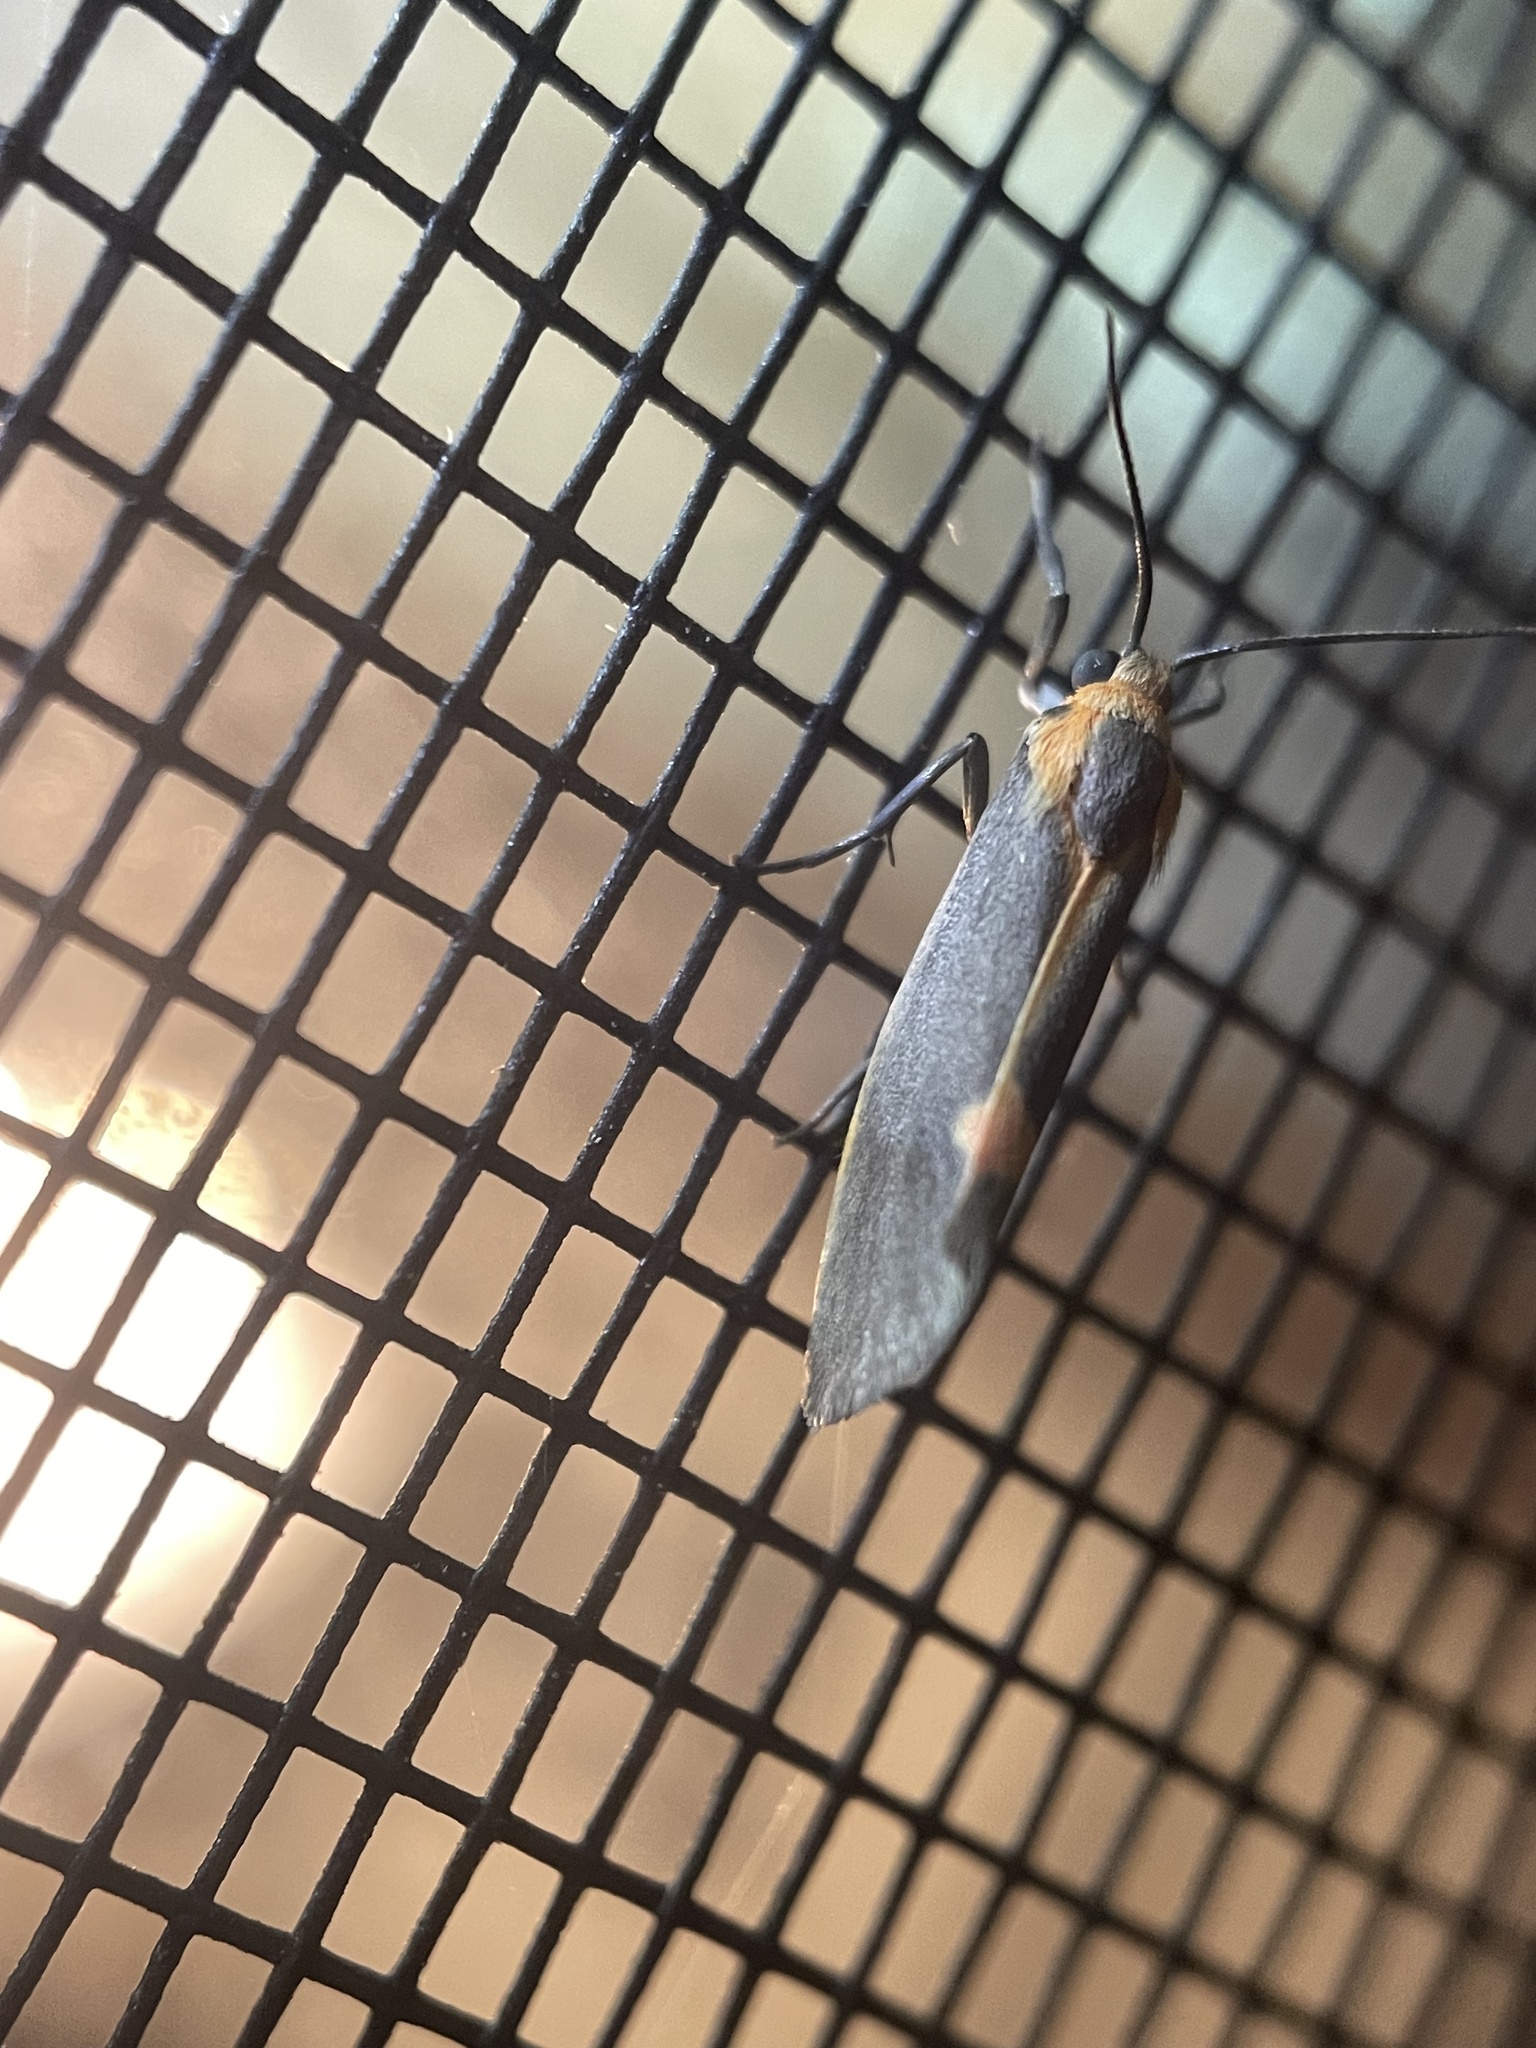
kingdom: Animalia
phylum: Arthropoda
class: Insecta
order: Lepidoptera
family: Erebidae
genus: Cisthene
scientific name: Cisthene plumbea
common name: Lead colored lichen moth
